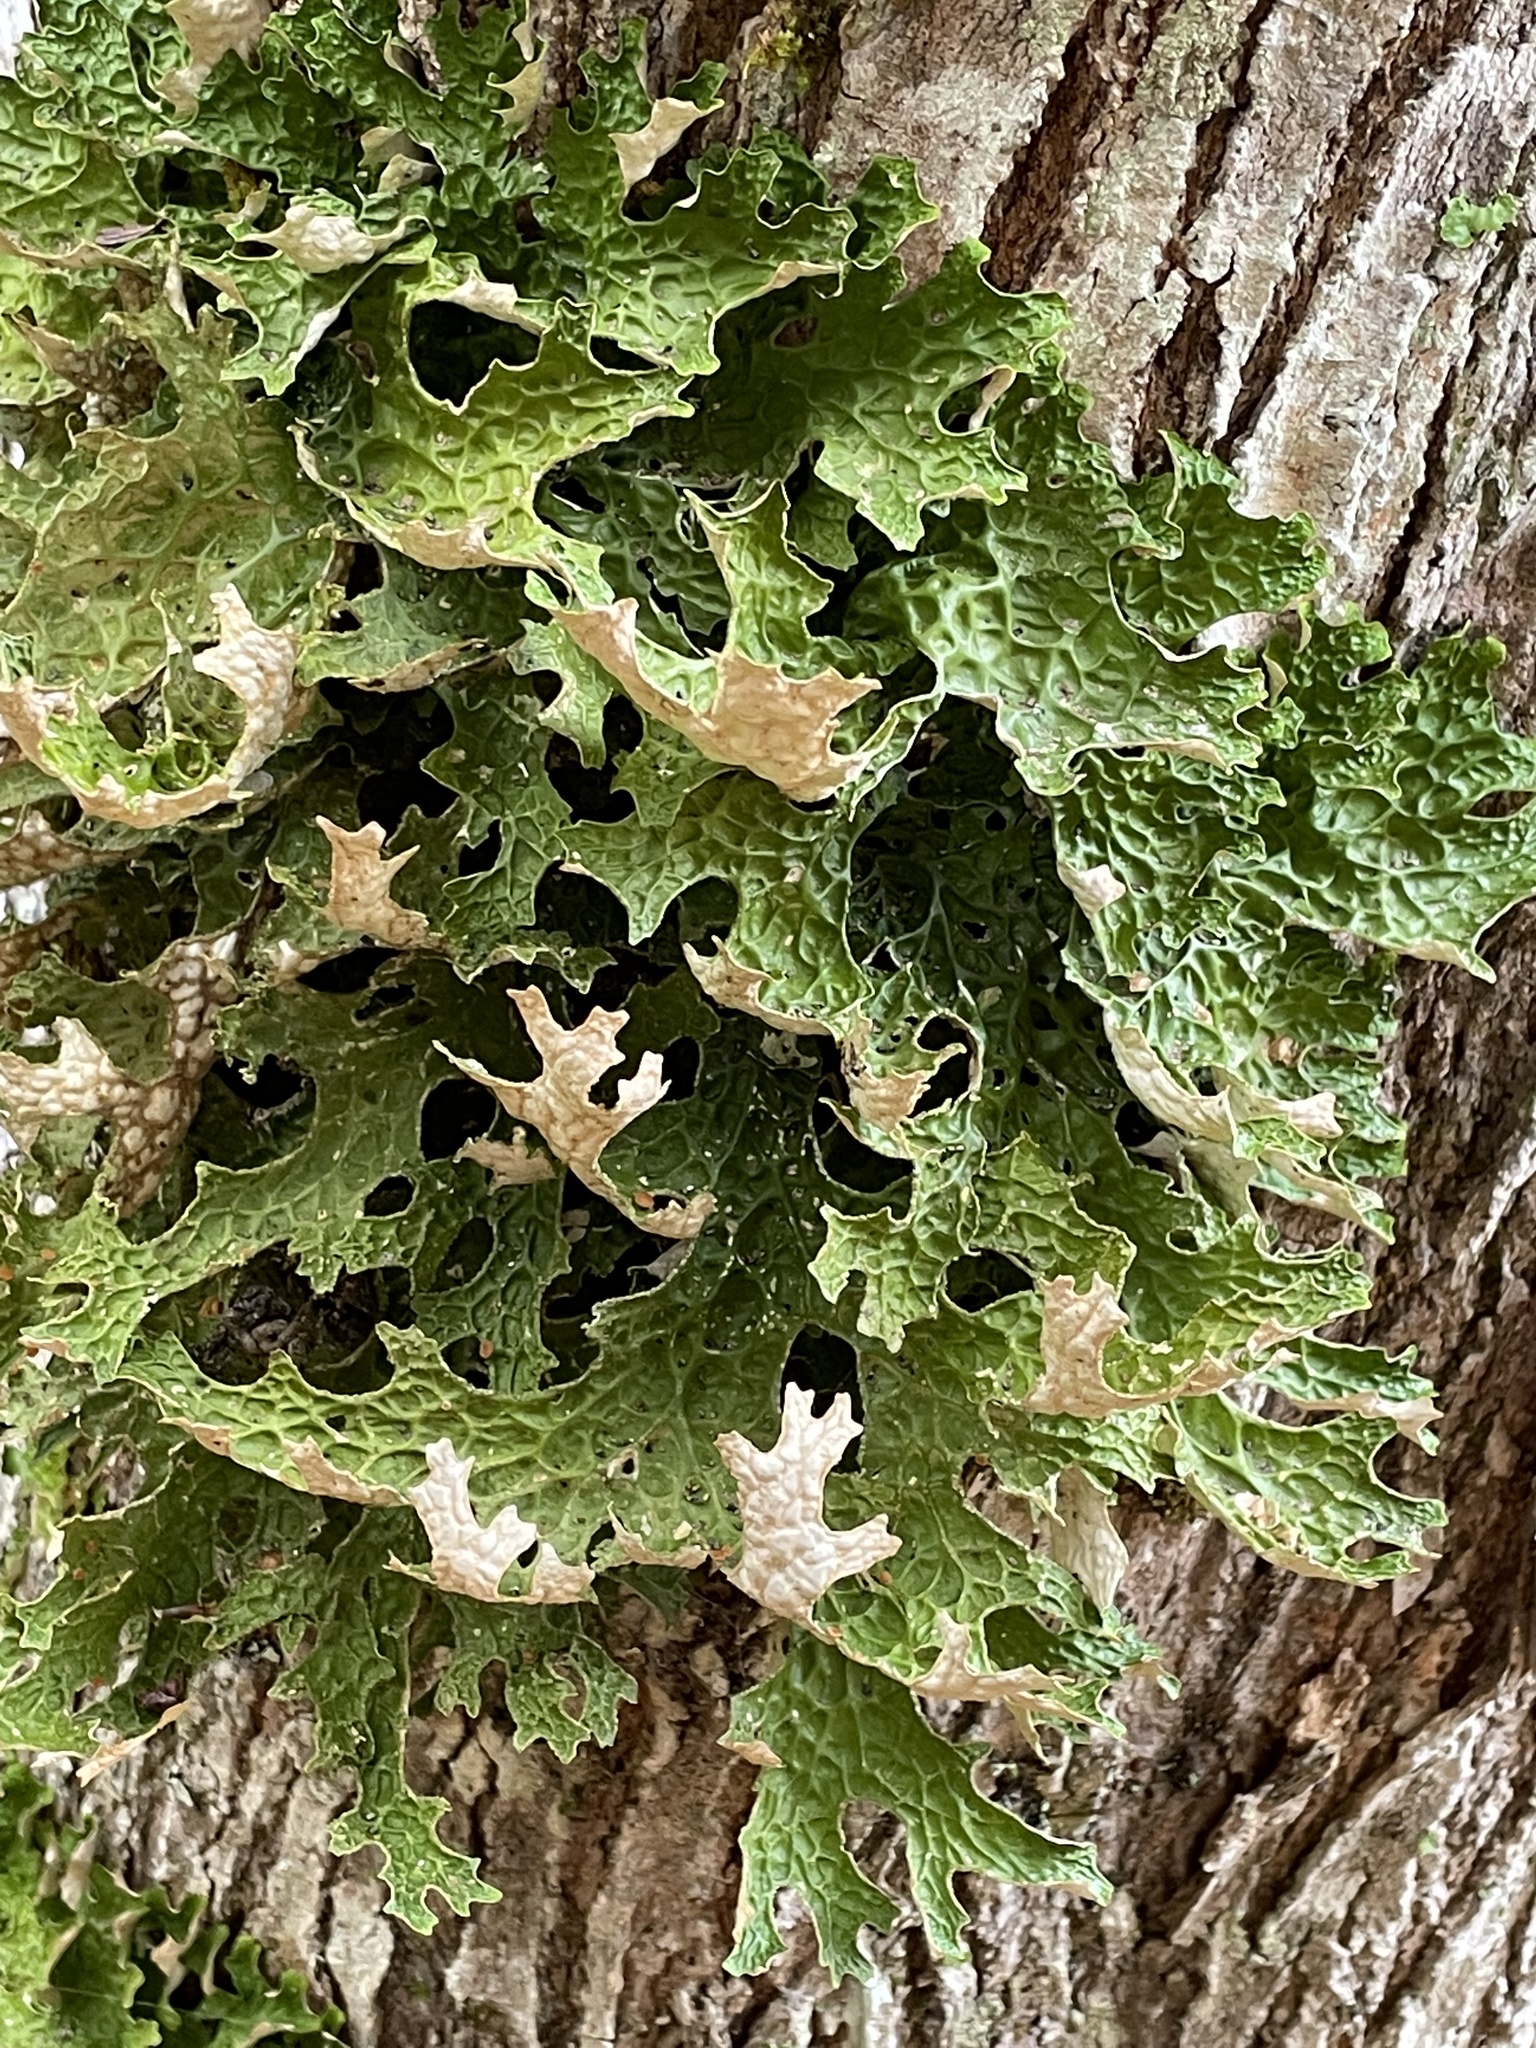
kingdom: Fungi
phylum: Ascomycota
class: Lecanoromycetes
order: Peltigerales
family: Lobariaceae
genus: Lobaria
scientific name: Lobaria pulmonaria
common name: Lungwort
